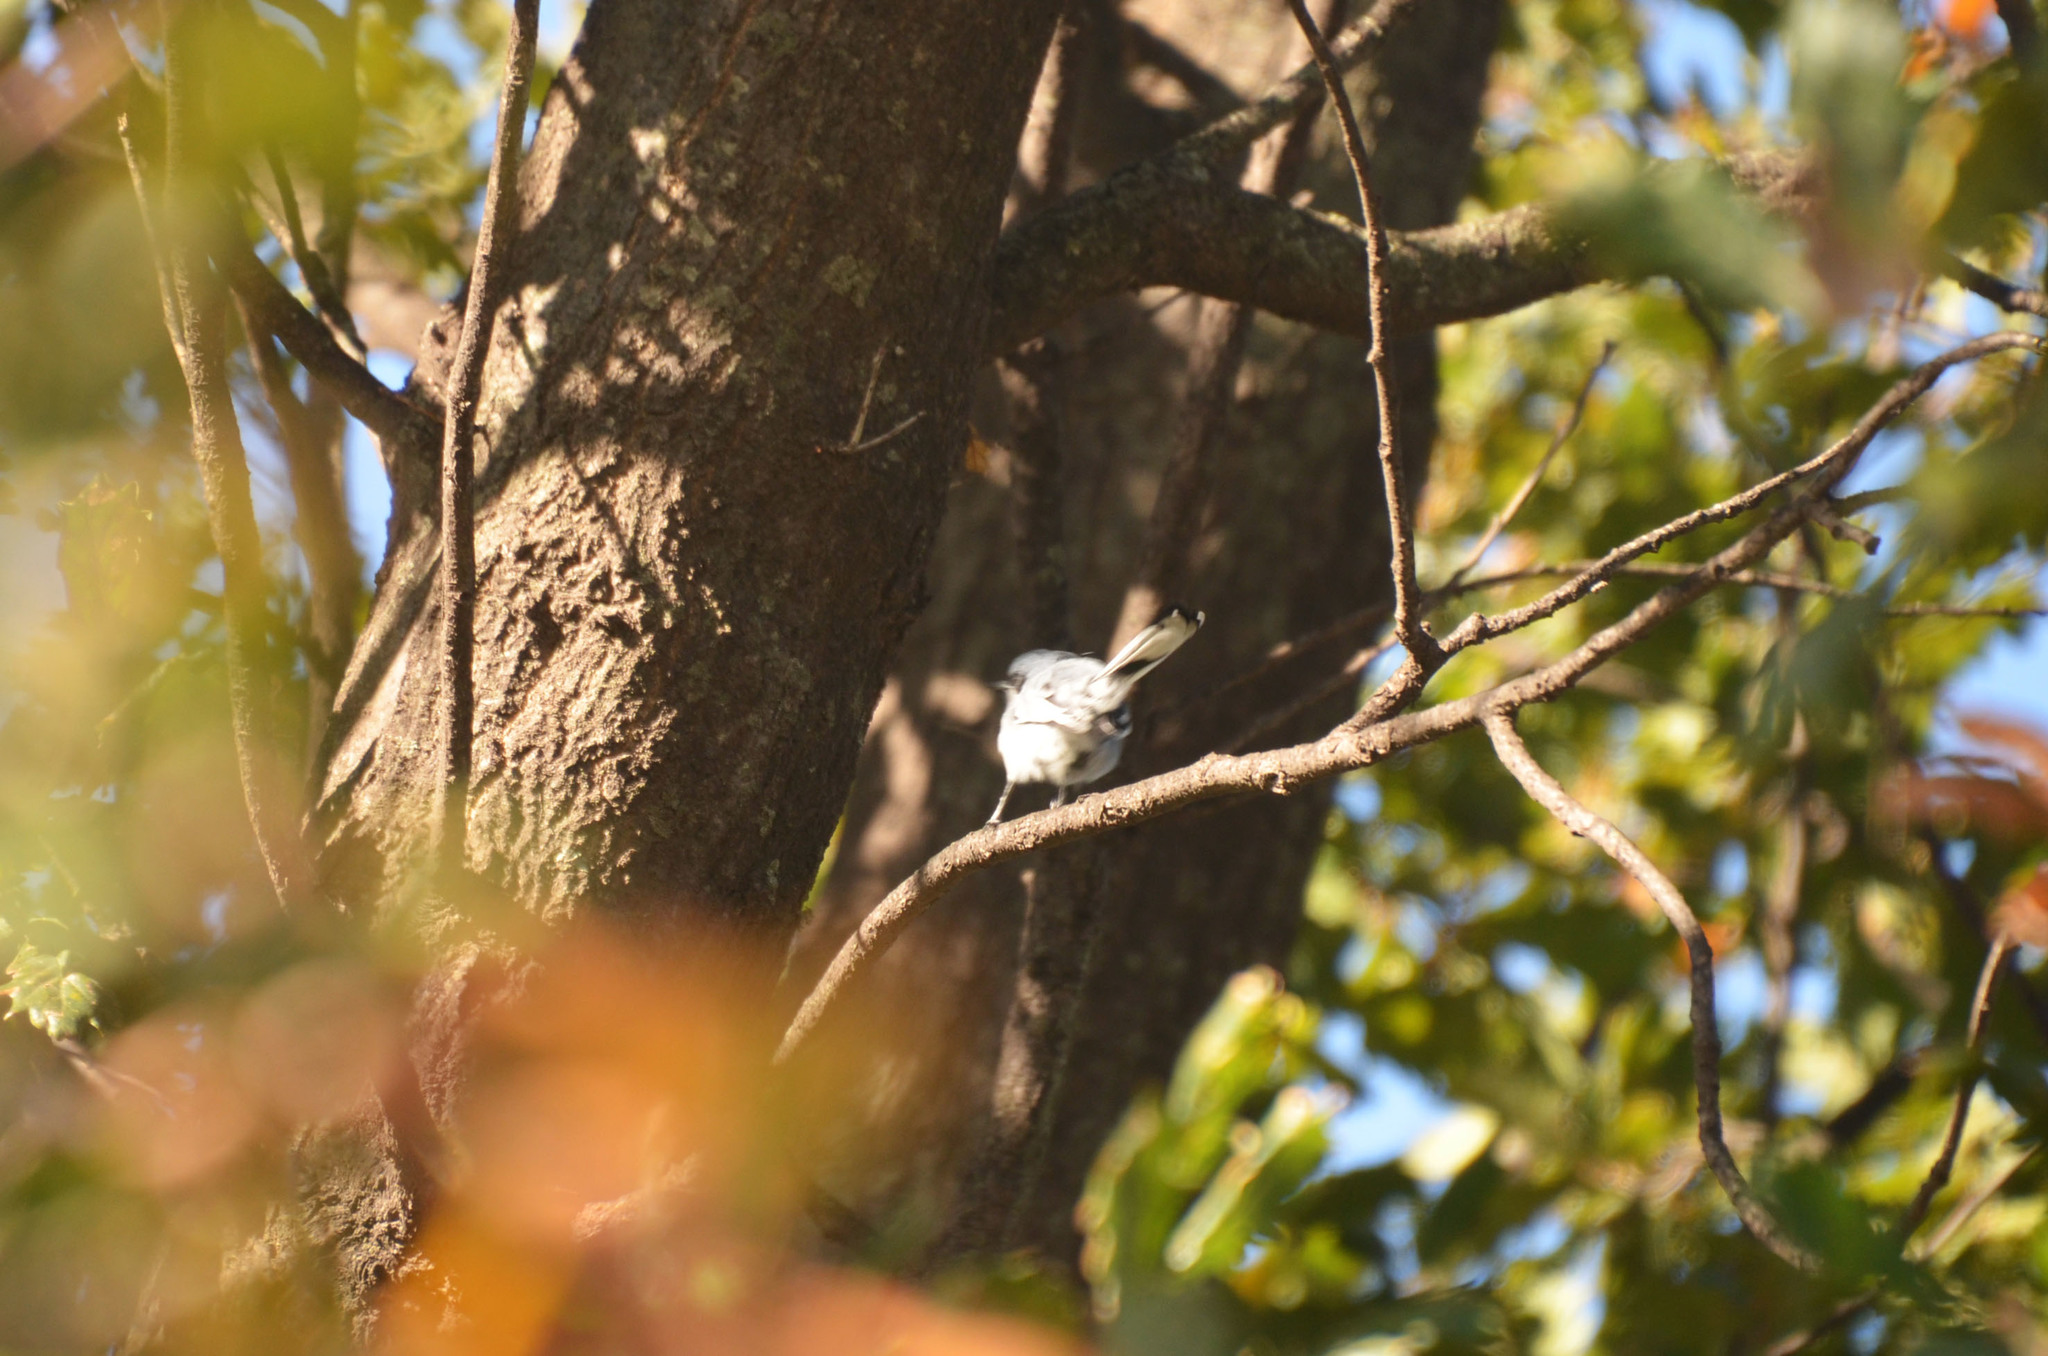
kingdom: Animalia
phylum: Chordata
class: Aves
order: Passeriformes
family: Polioptilidae
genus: Polioptila
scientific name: Polioptila dumicola
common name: Masked gnatcatcher
